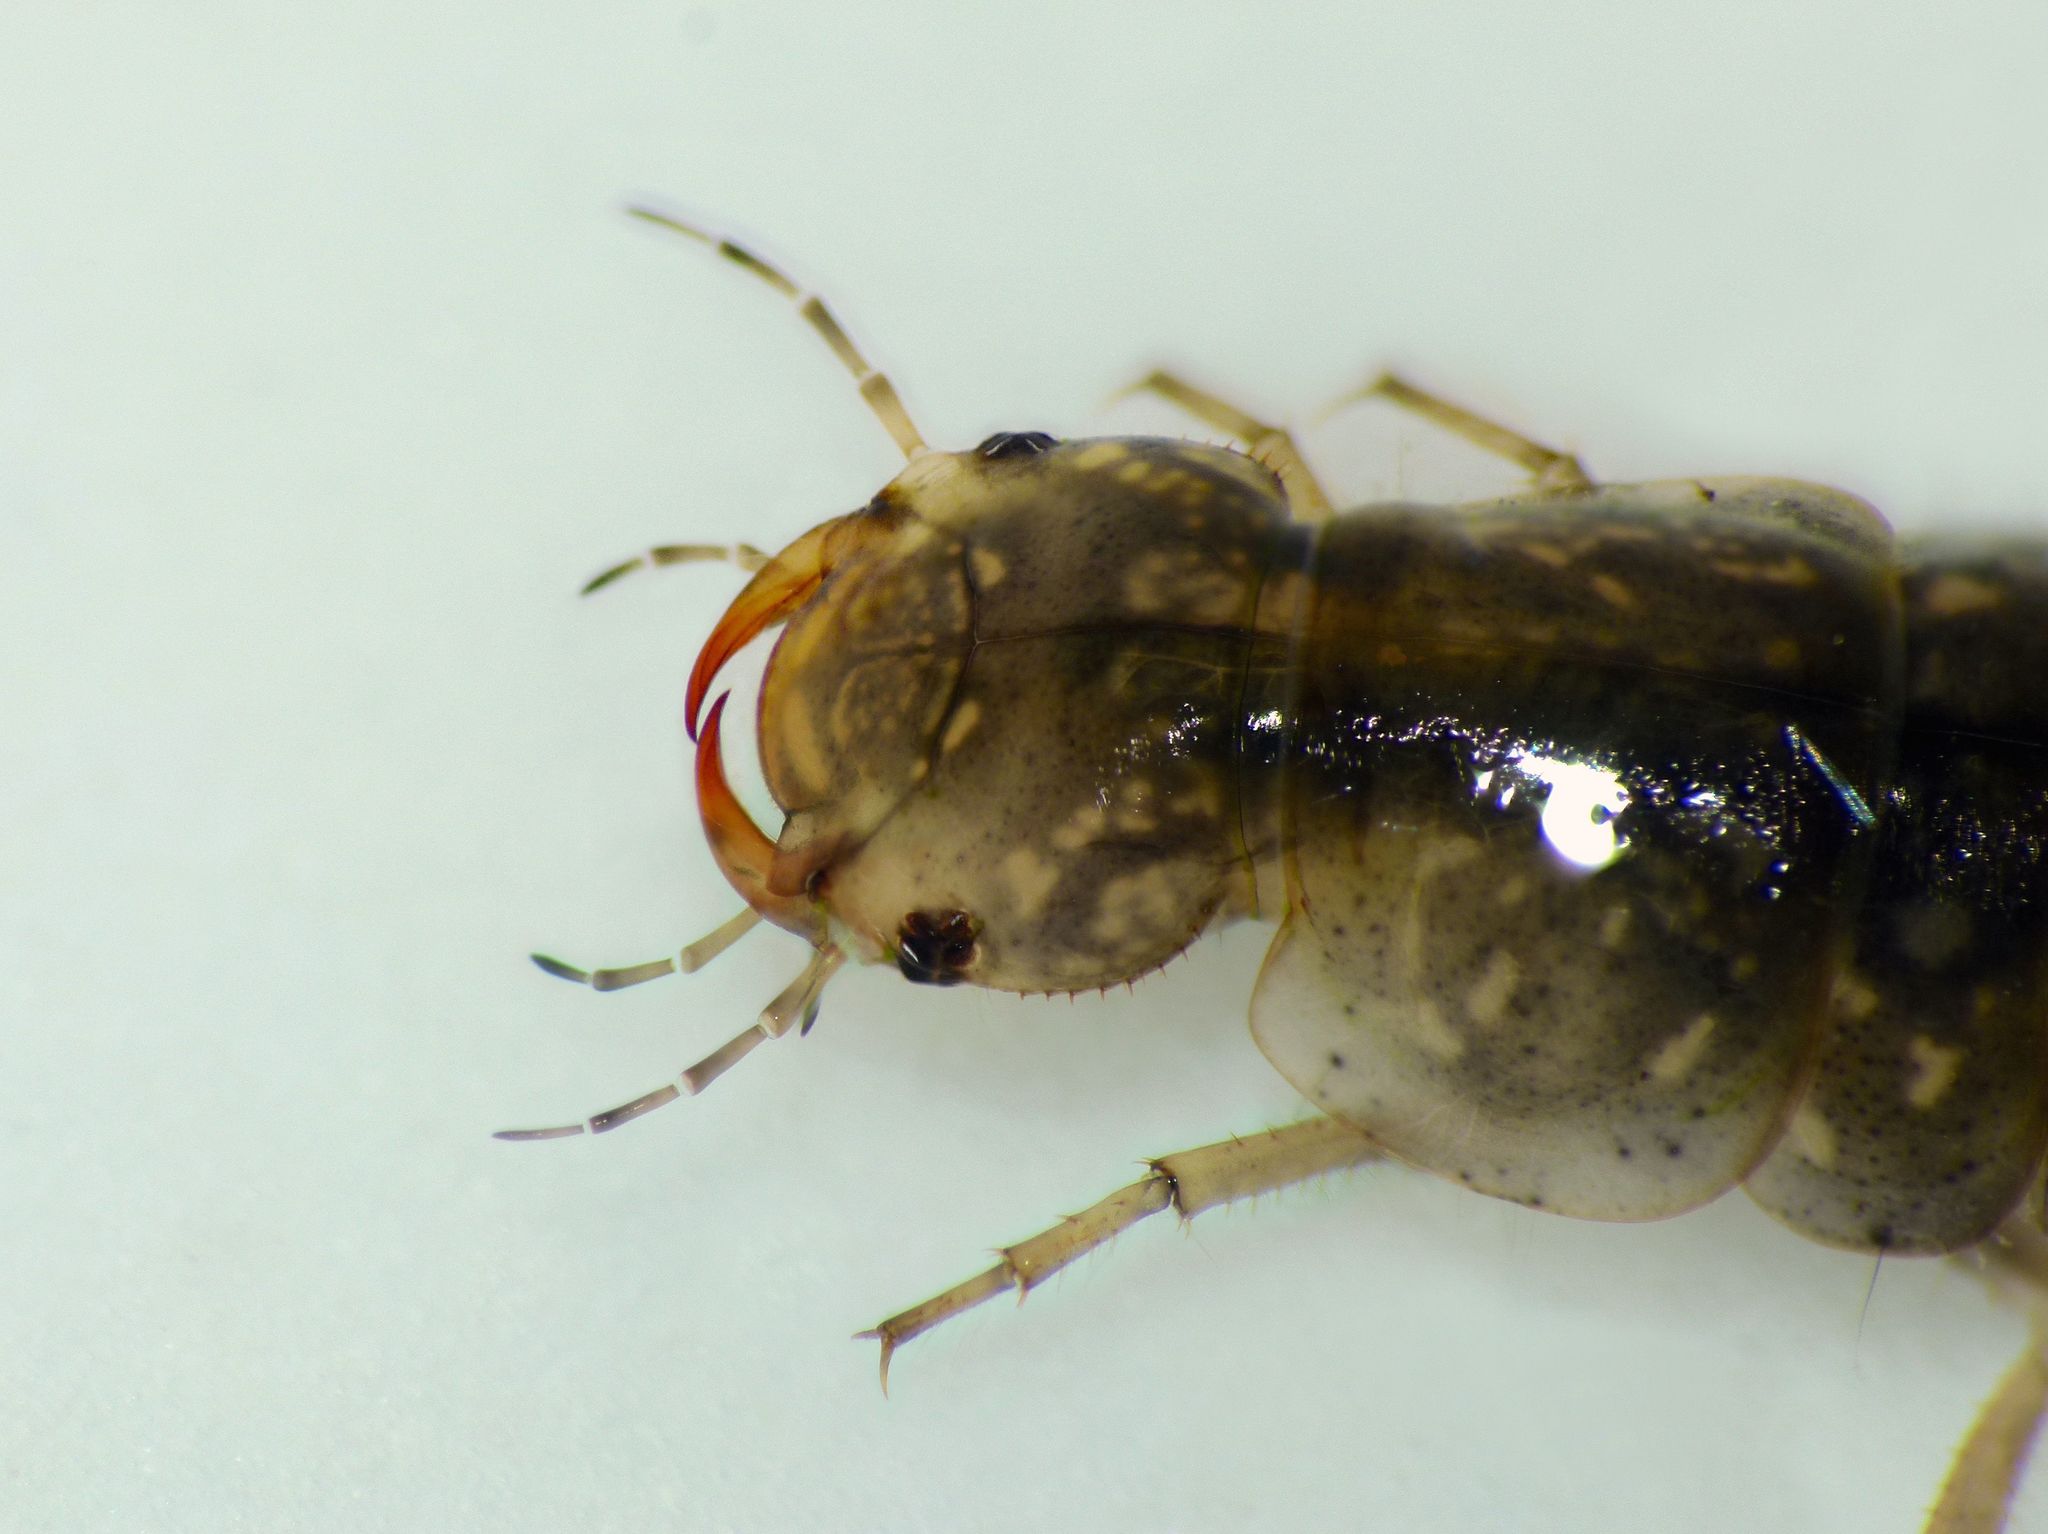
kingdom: Animalia
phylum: Arthropoda
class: Insecta
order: Coleoptera
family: Dytiscidae
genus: Rhantus
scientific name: Rhantus
